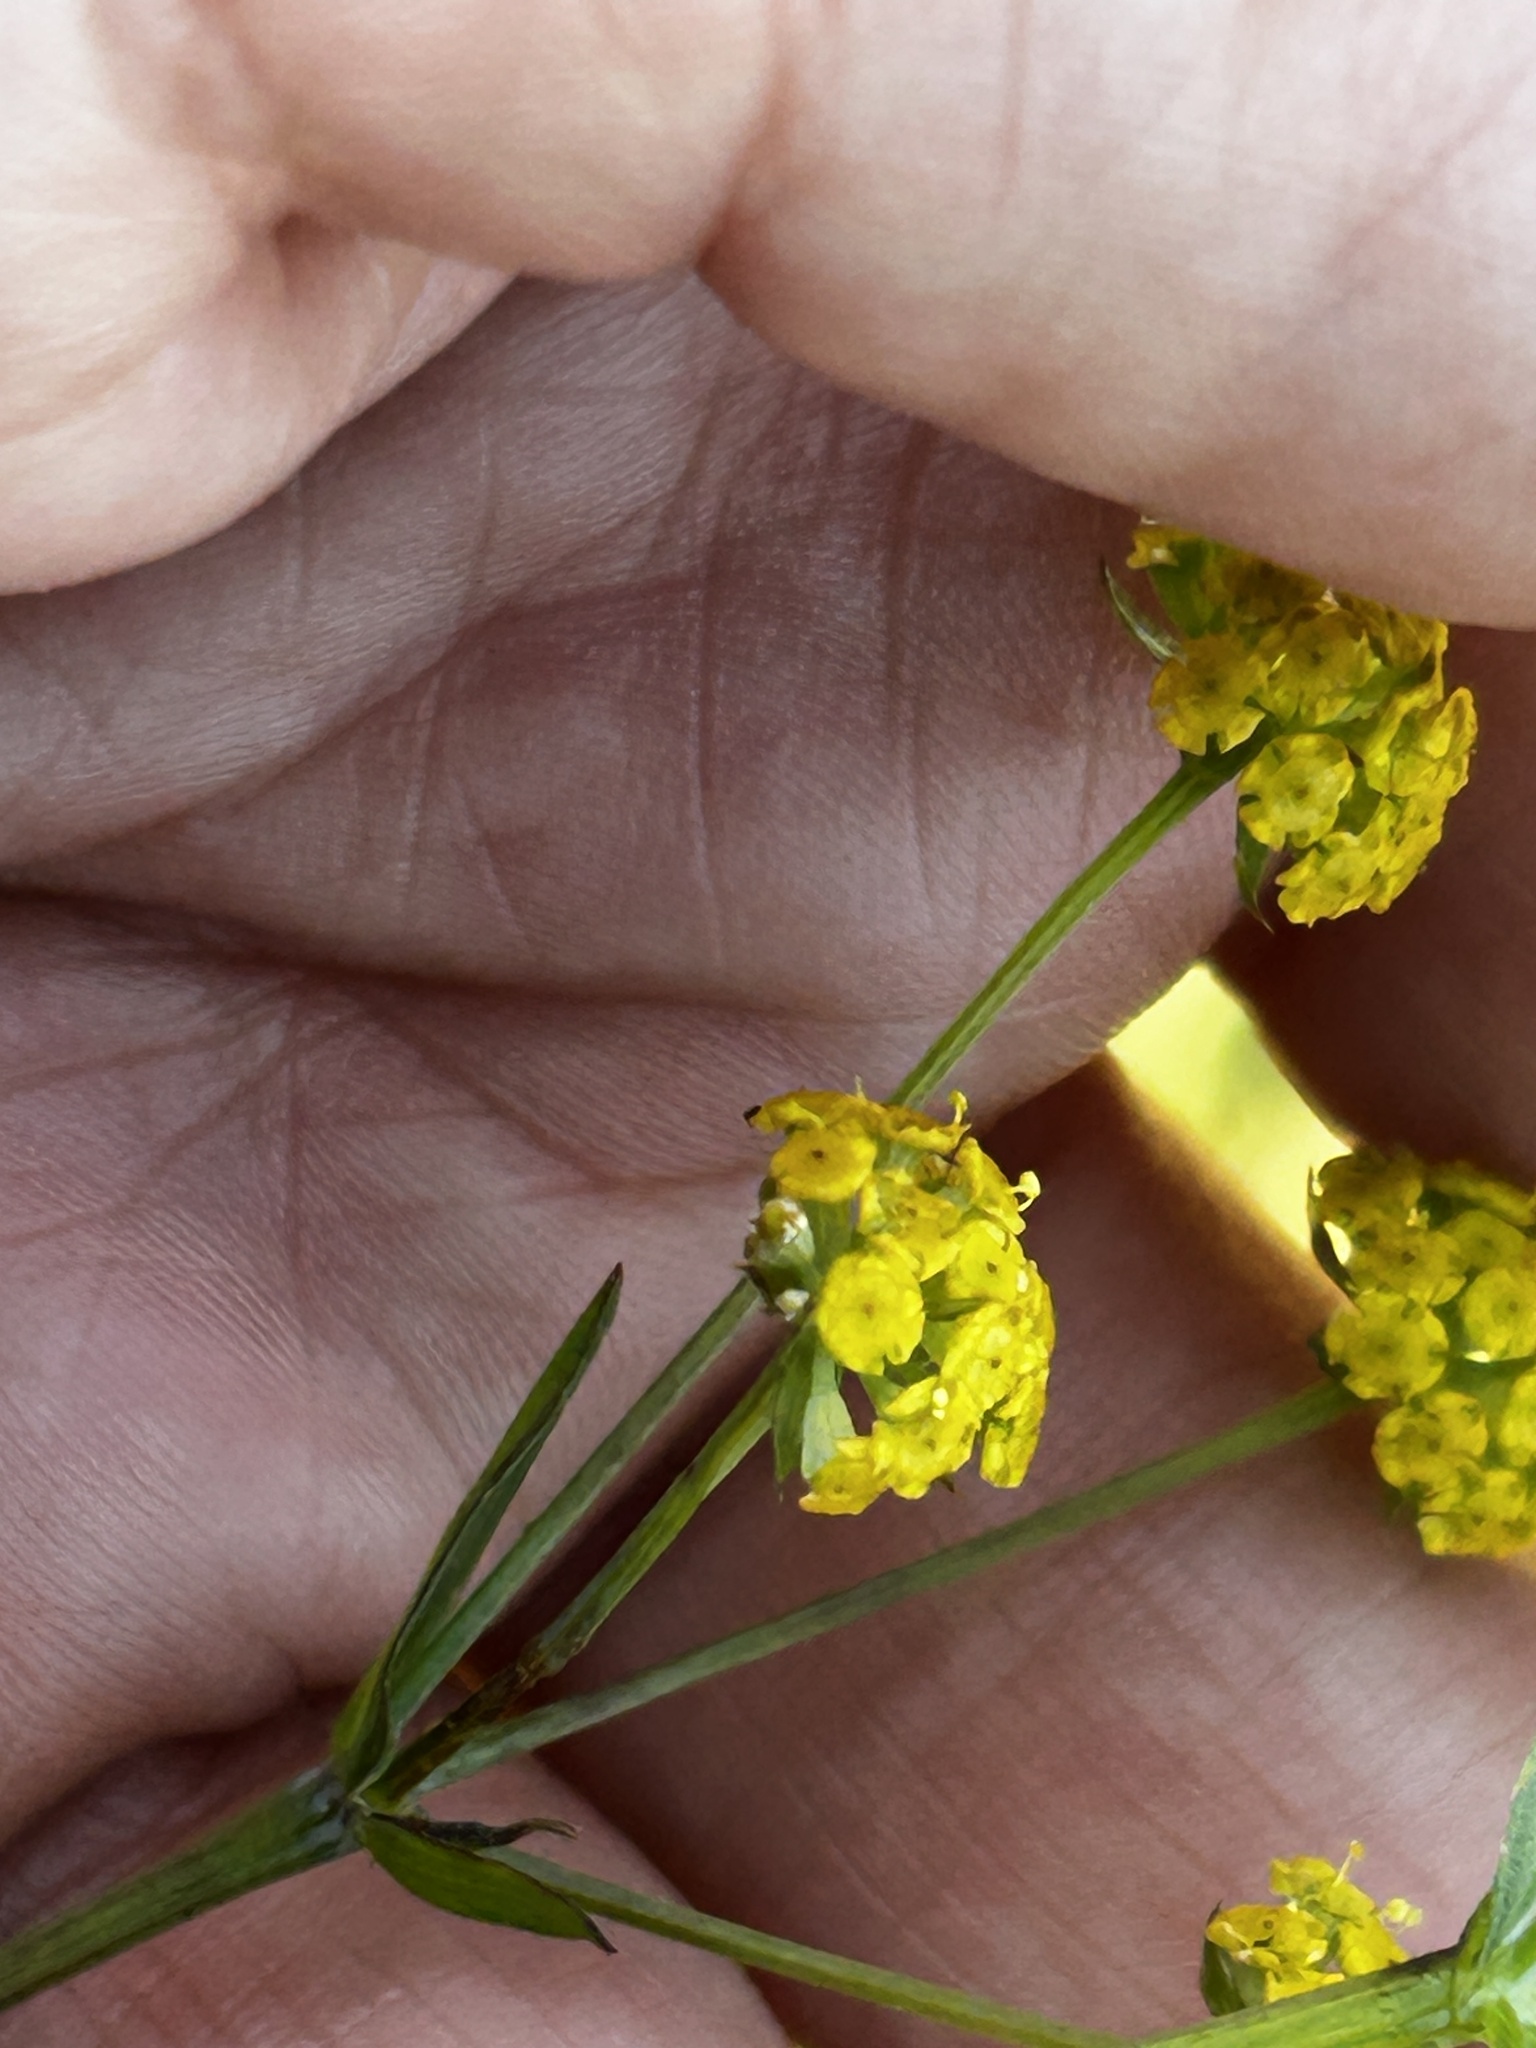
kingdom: Plantae
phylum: Tracheophyta
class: Magnoliopsida
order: Apiales
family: Apiaceae
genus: Bupleurum
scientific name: Bupleurum mundii
